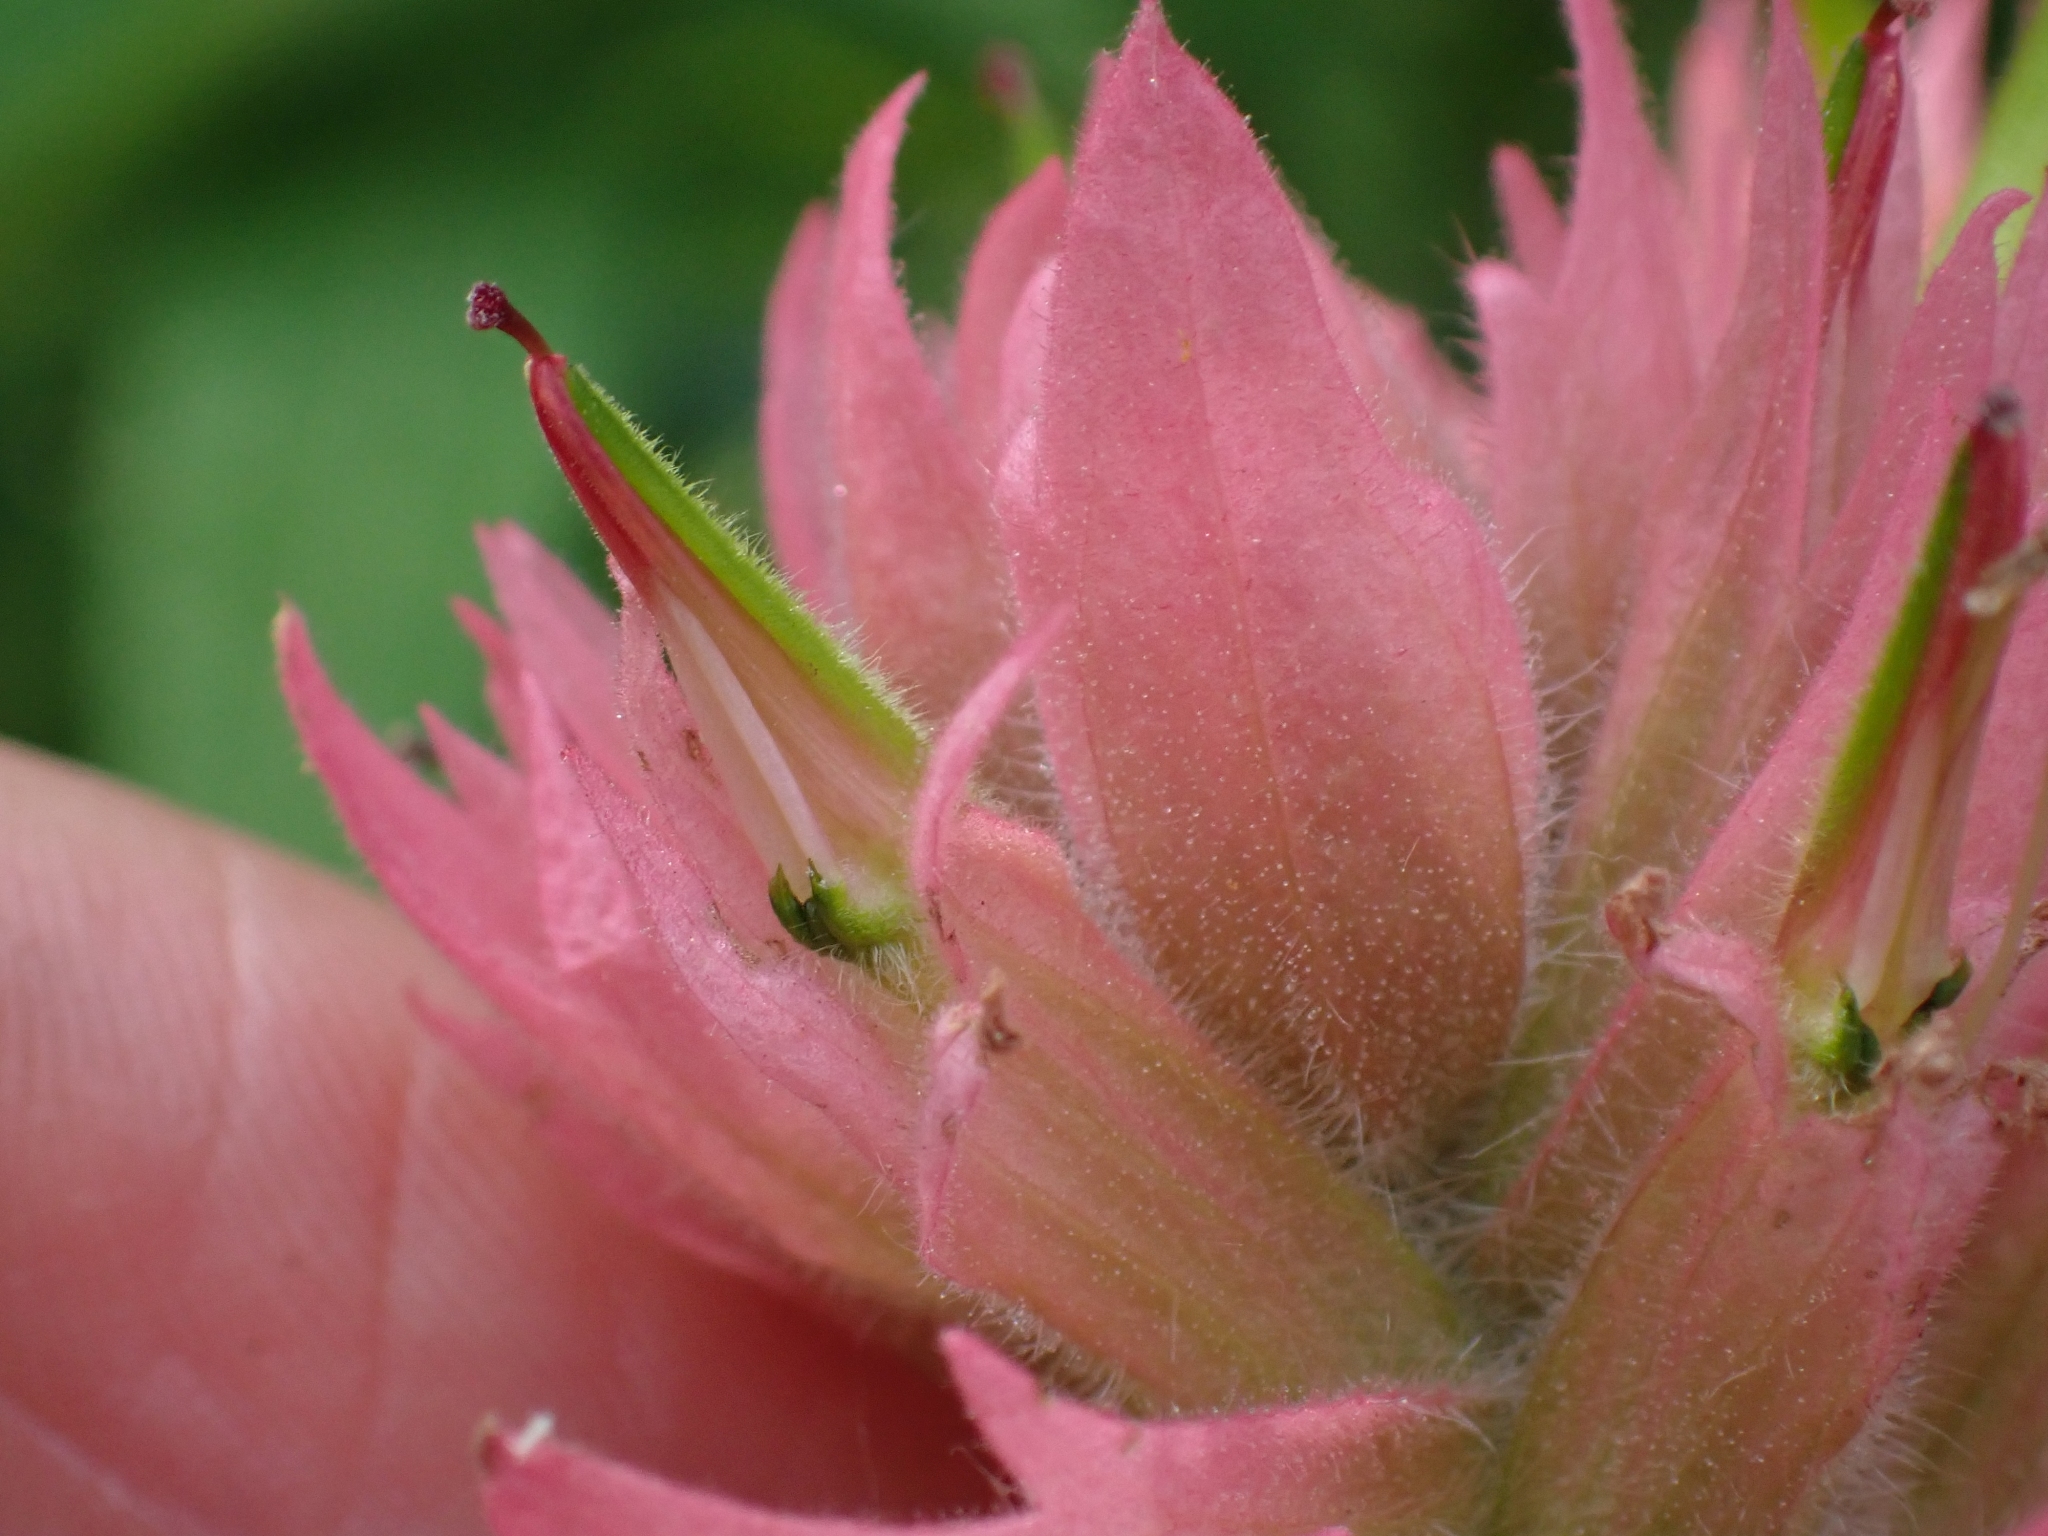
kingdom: Plantae
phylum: Tracheophyta
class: Magnoliopsida
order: Lamiales
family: Orobanchaceae
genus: Castilleja
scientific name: Castilleja miniata
